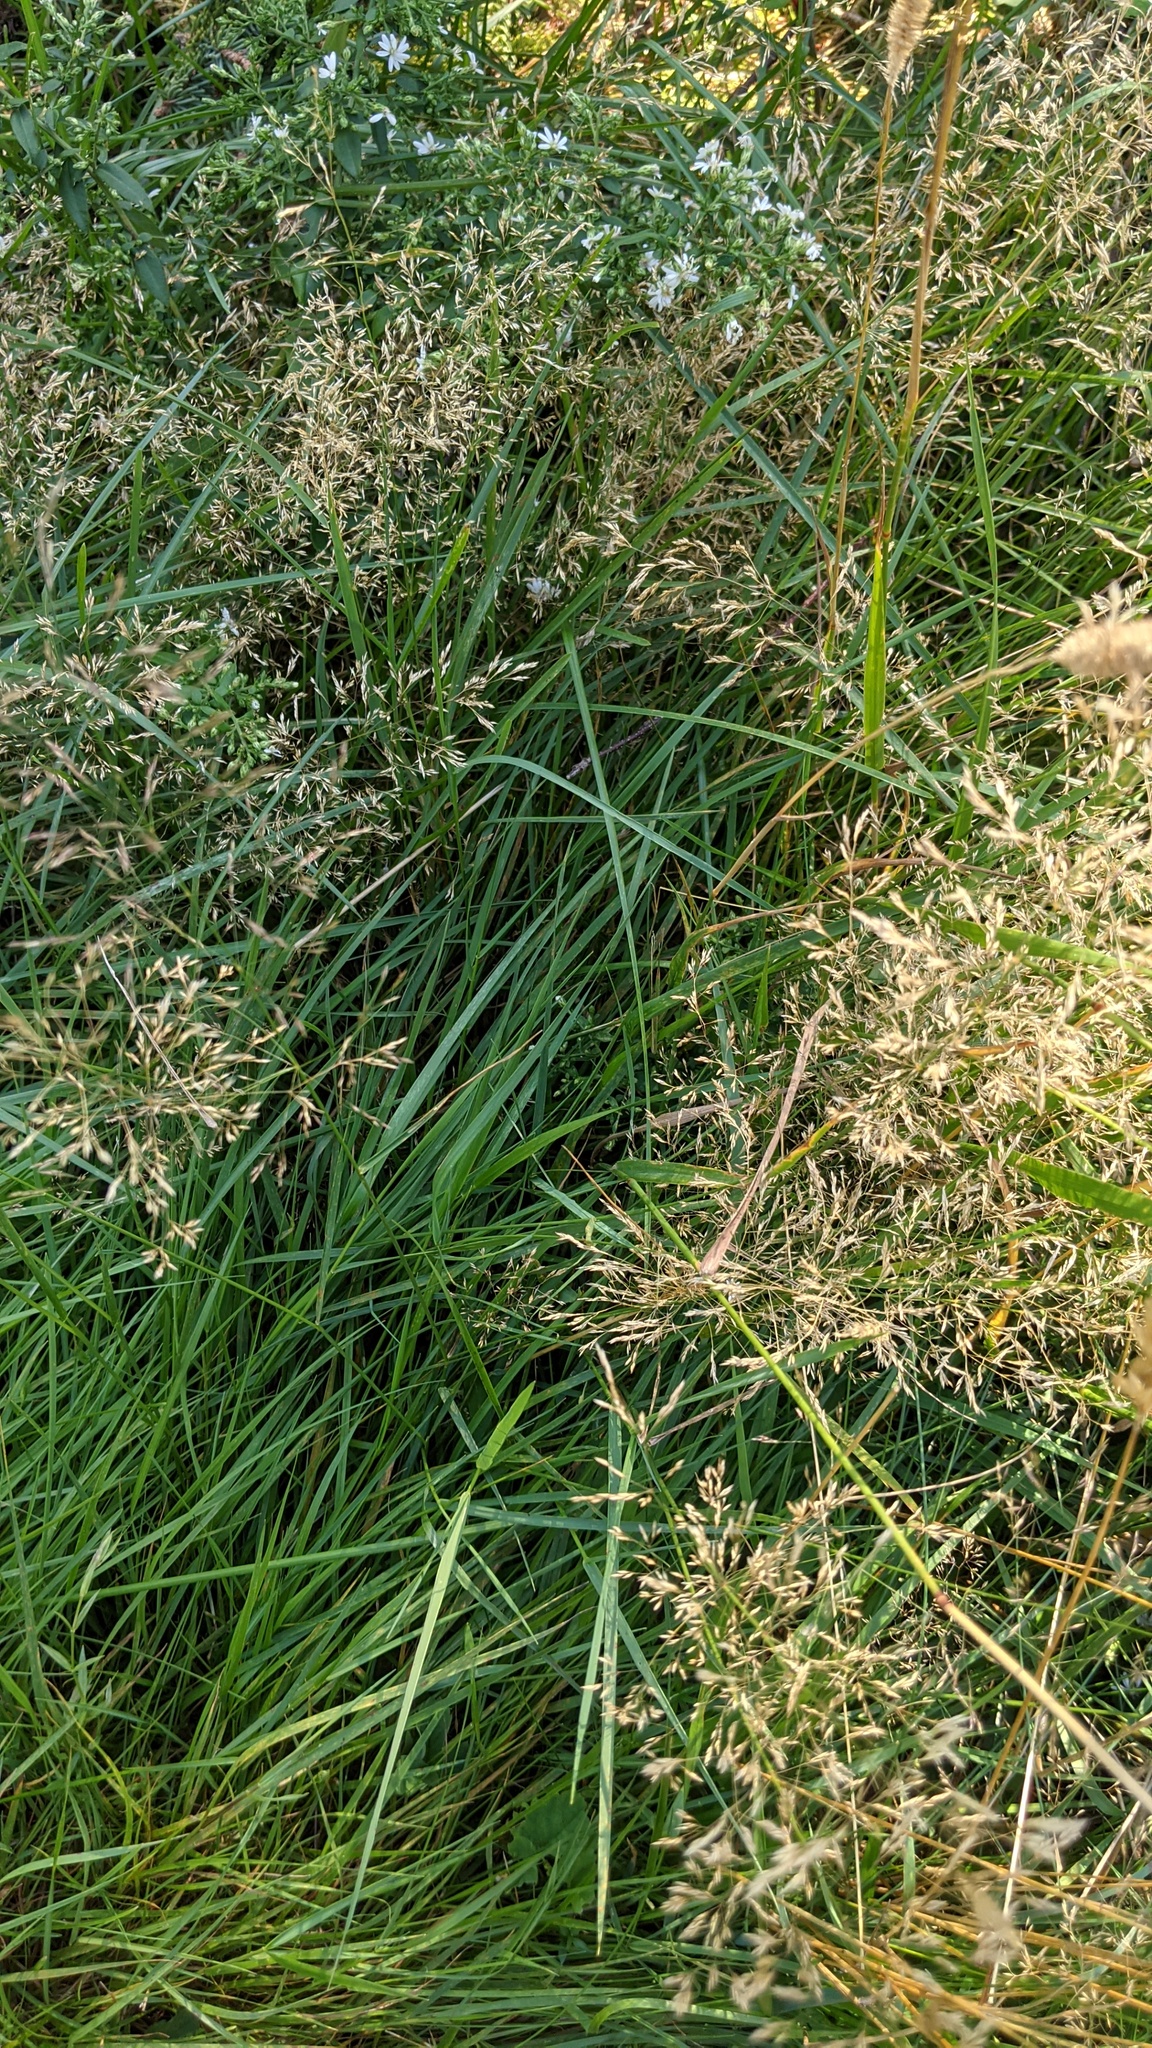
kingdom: Plantae
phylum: Tracheophyta
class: Liliopsida
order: Poales
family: Poaceae
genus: Phleum
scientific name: Phleum pratense
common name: Timothy grass
